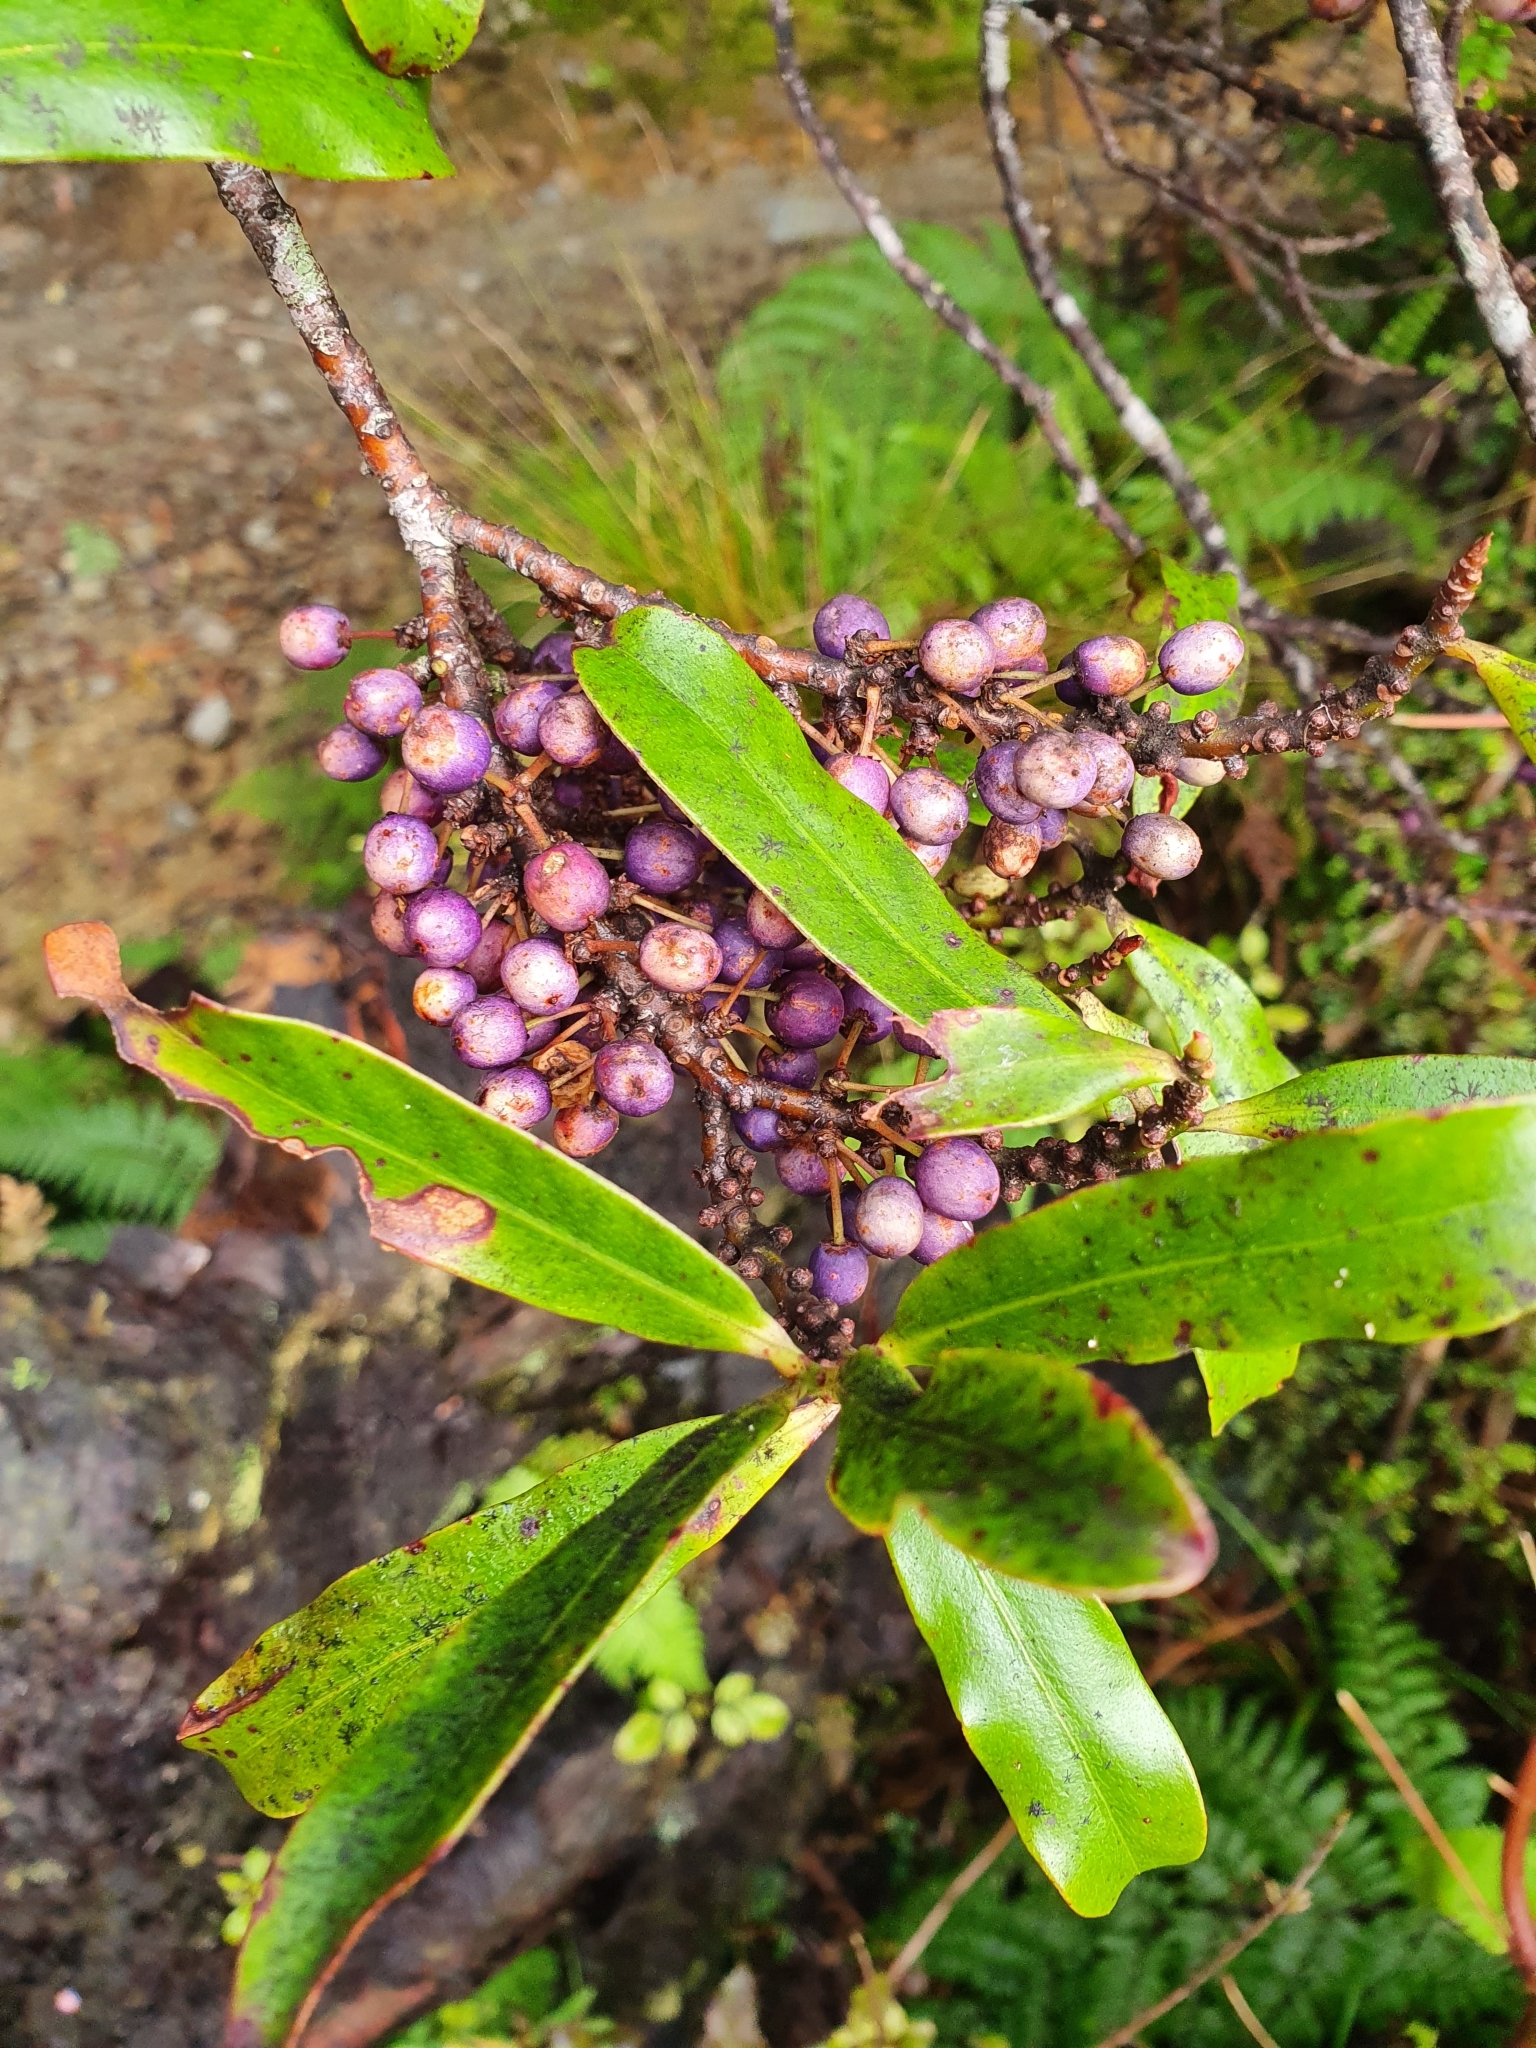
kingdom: Plantae
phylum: Tracheophyta
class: Magnoliopsida
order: Ericales
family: Primulaceae
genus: Myrsine
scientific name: Myrsine salicina
